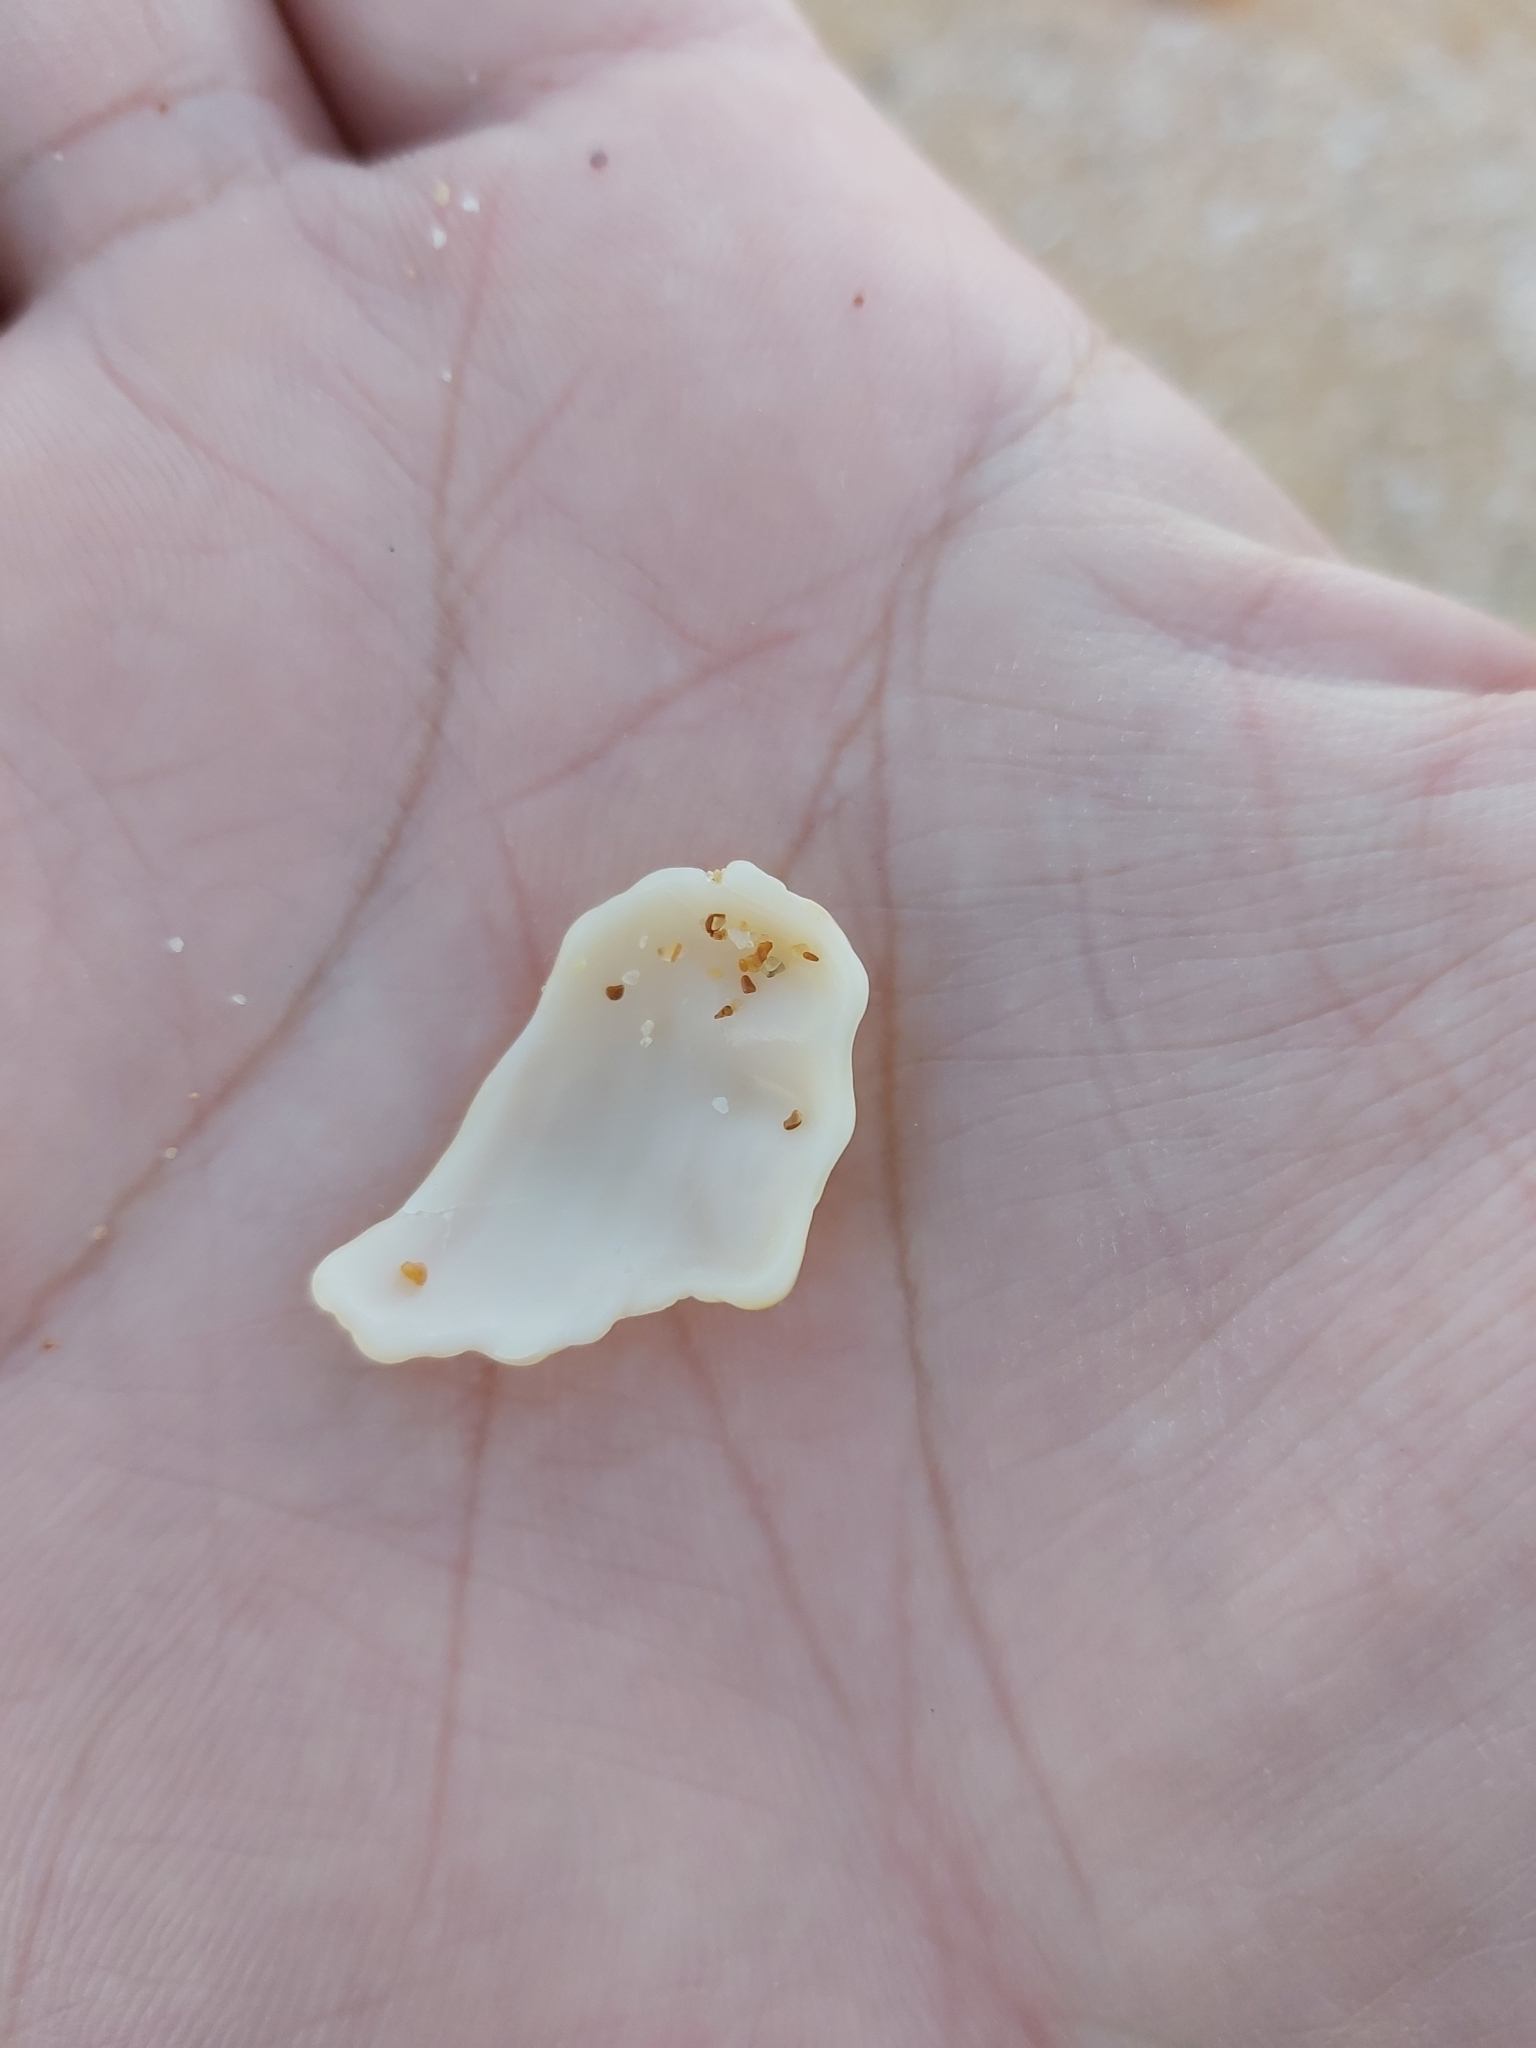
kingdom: Animalia
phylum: Mollusca
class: Gastropoda
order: Littorinimorpha
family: Cymatiidae
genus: Cabestana
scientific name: Cabestana spengleri
